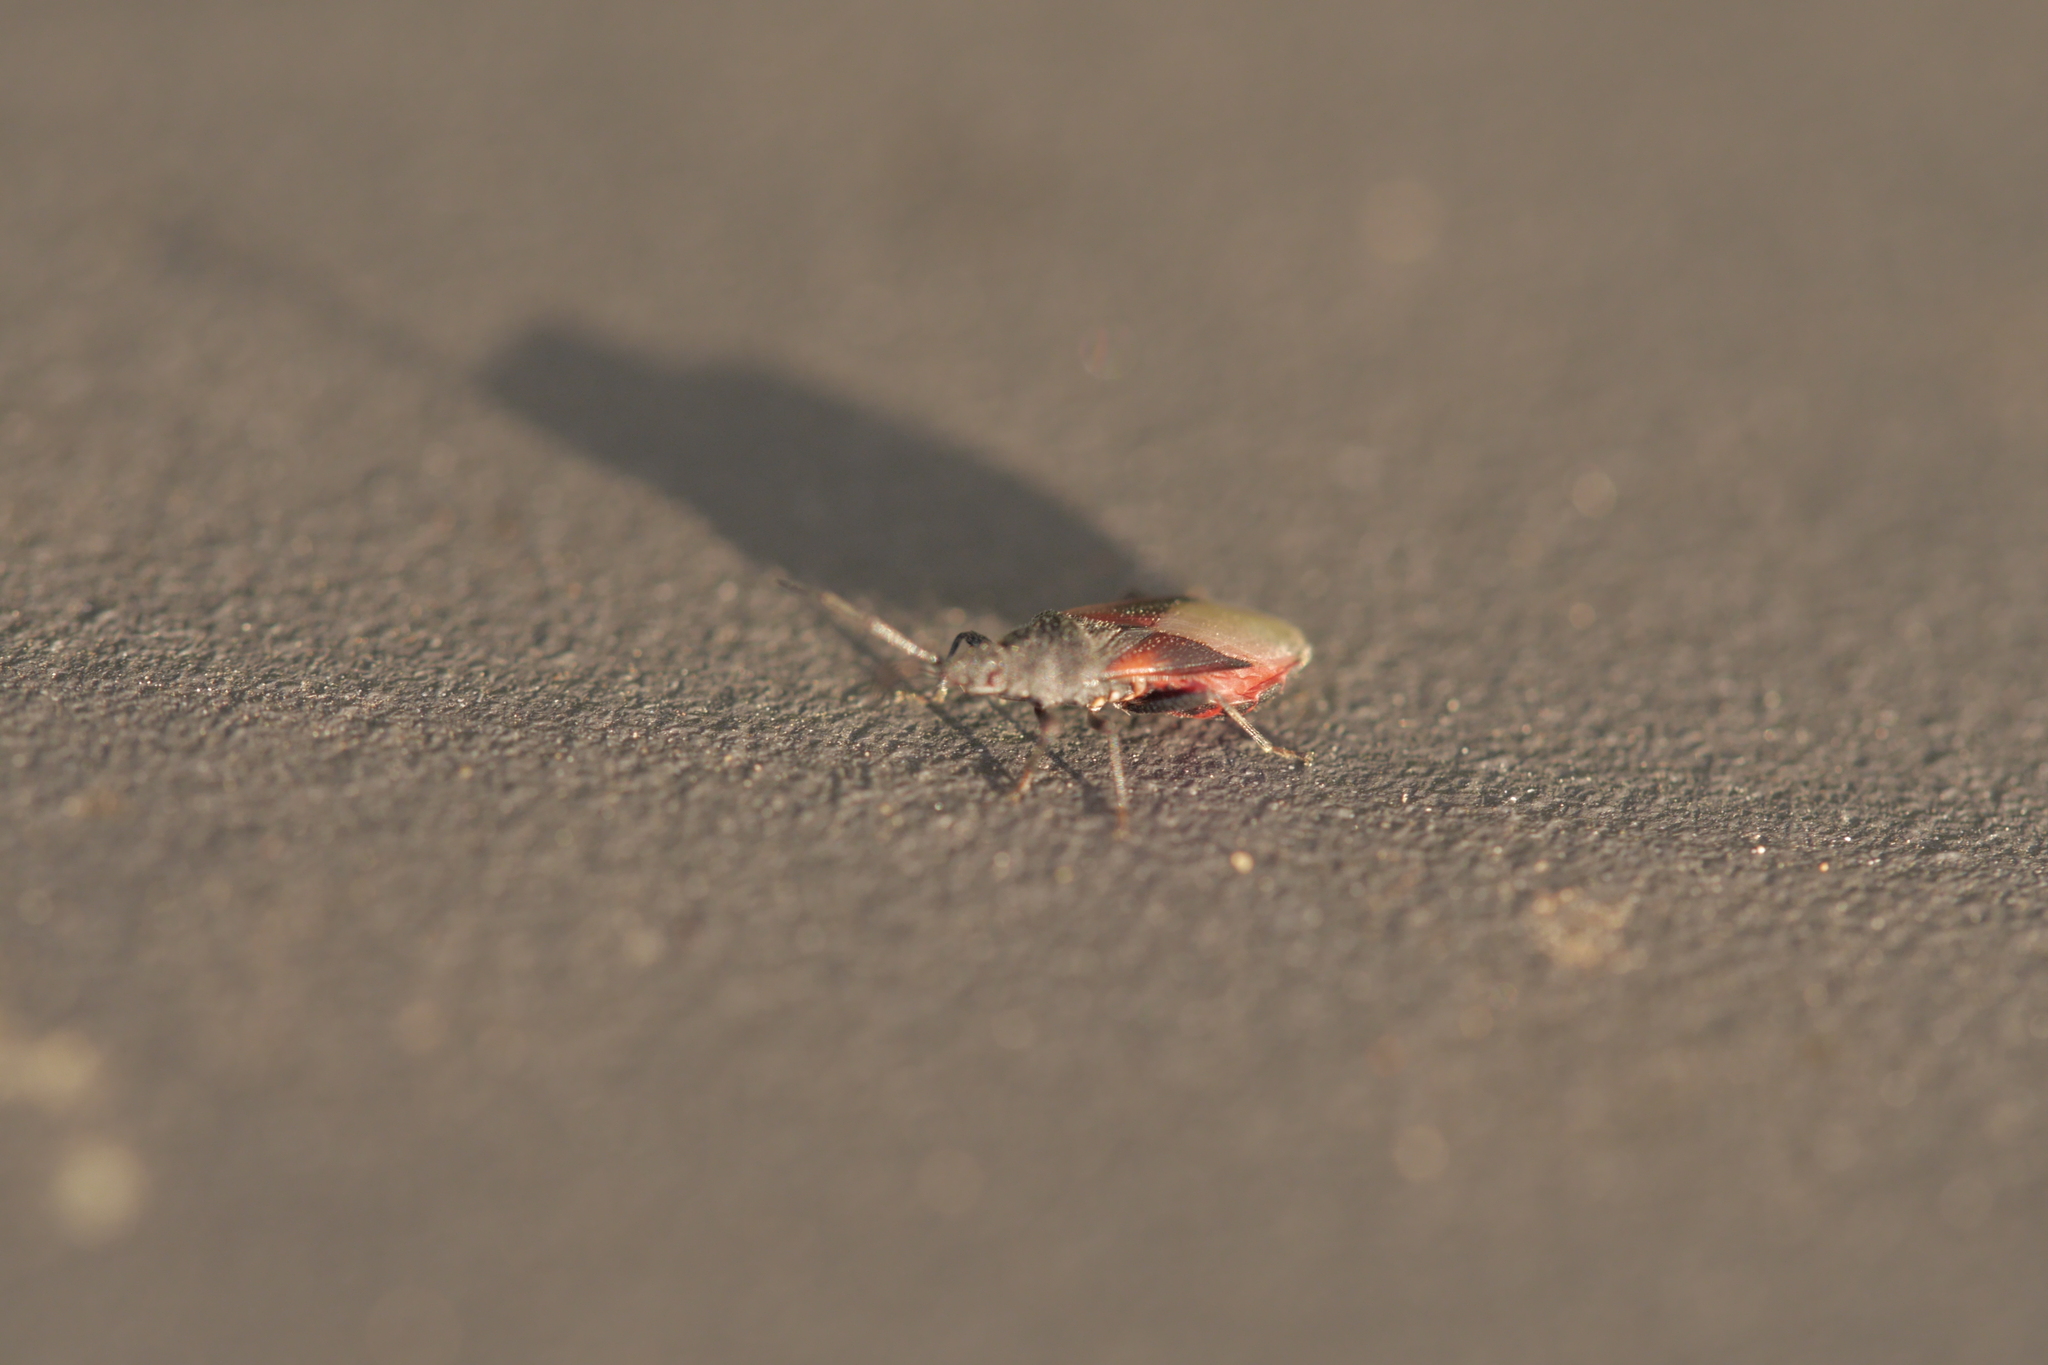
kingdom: Animalia
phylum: Arthropoda
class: Insecta
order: Hemiptera
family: Oxycarenidae
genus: Oxycarenus
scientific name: Oxycarenus lavaterae
